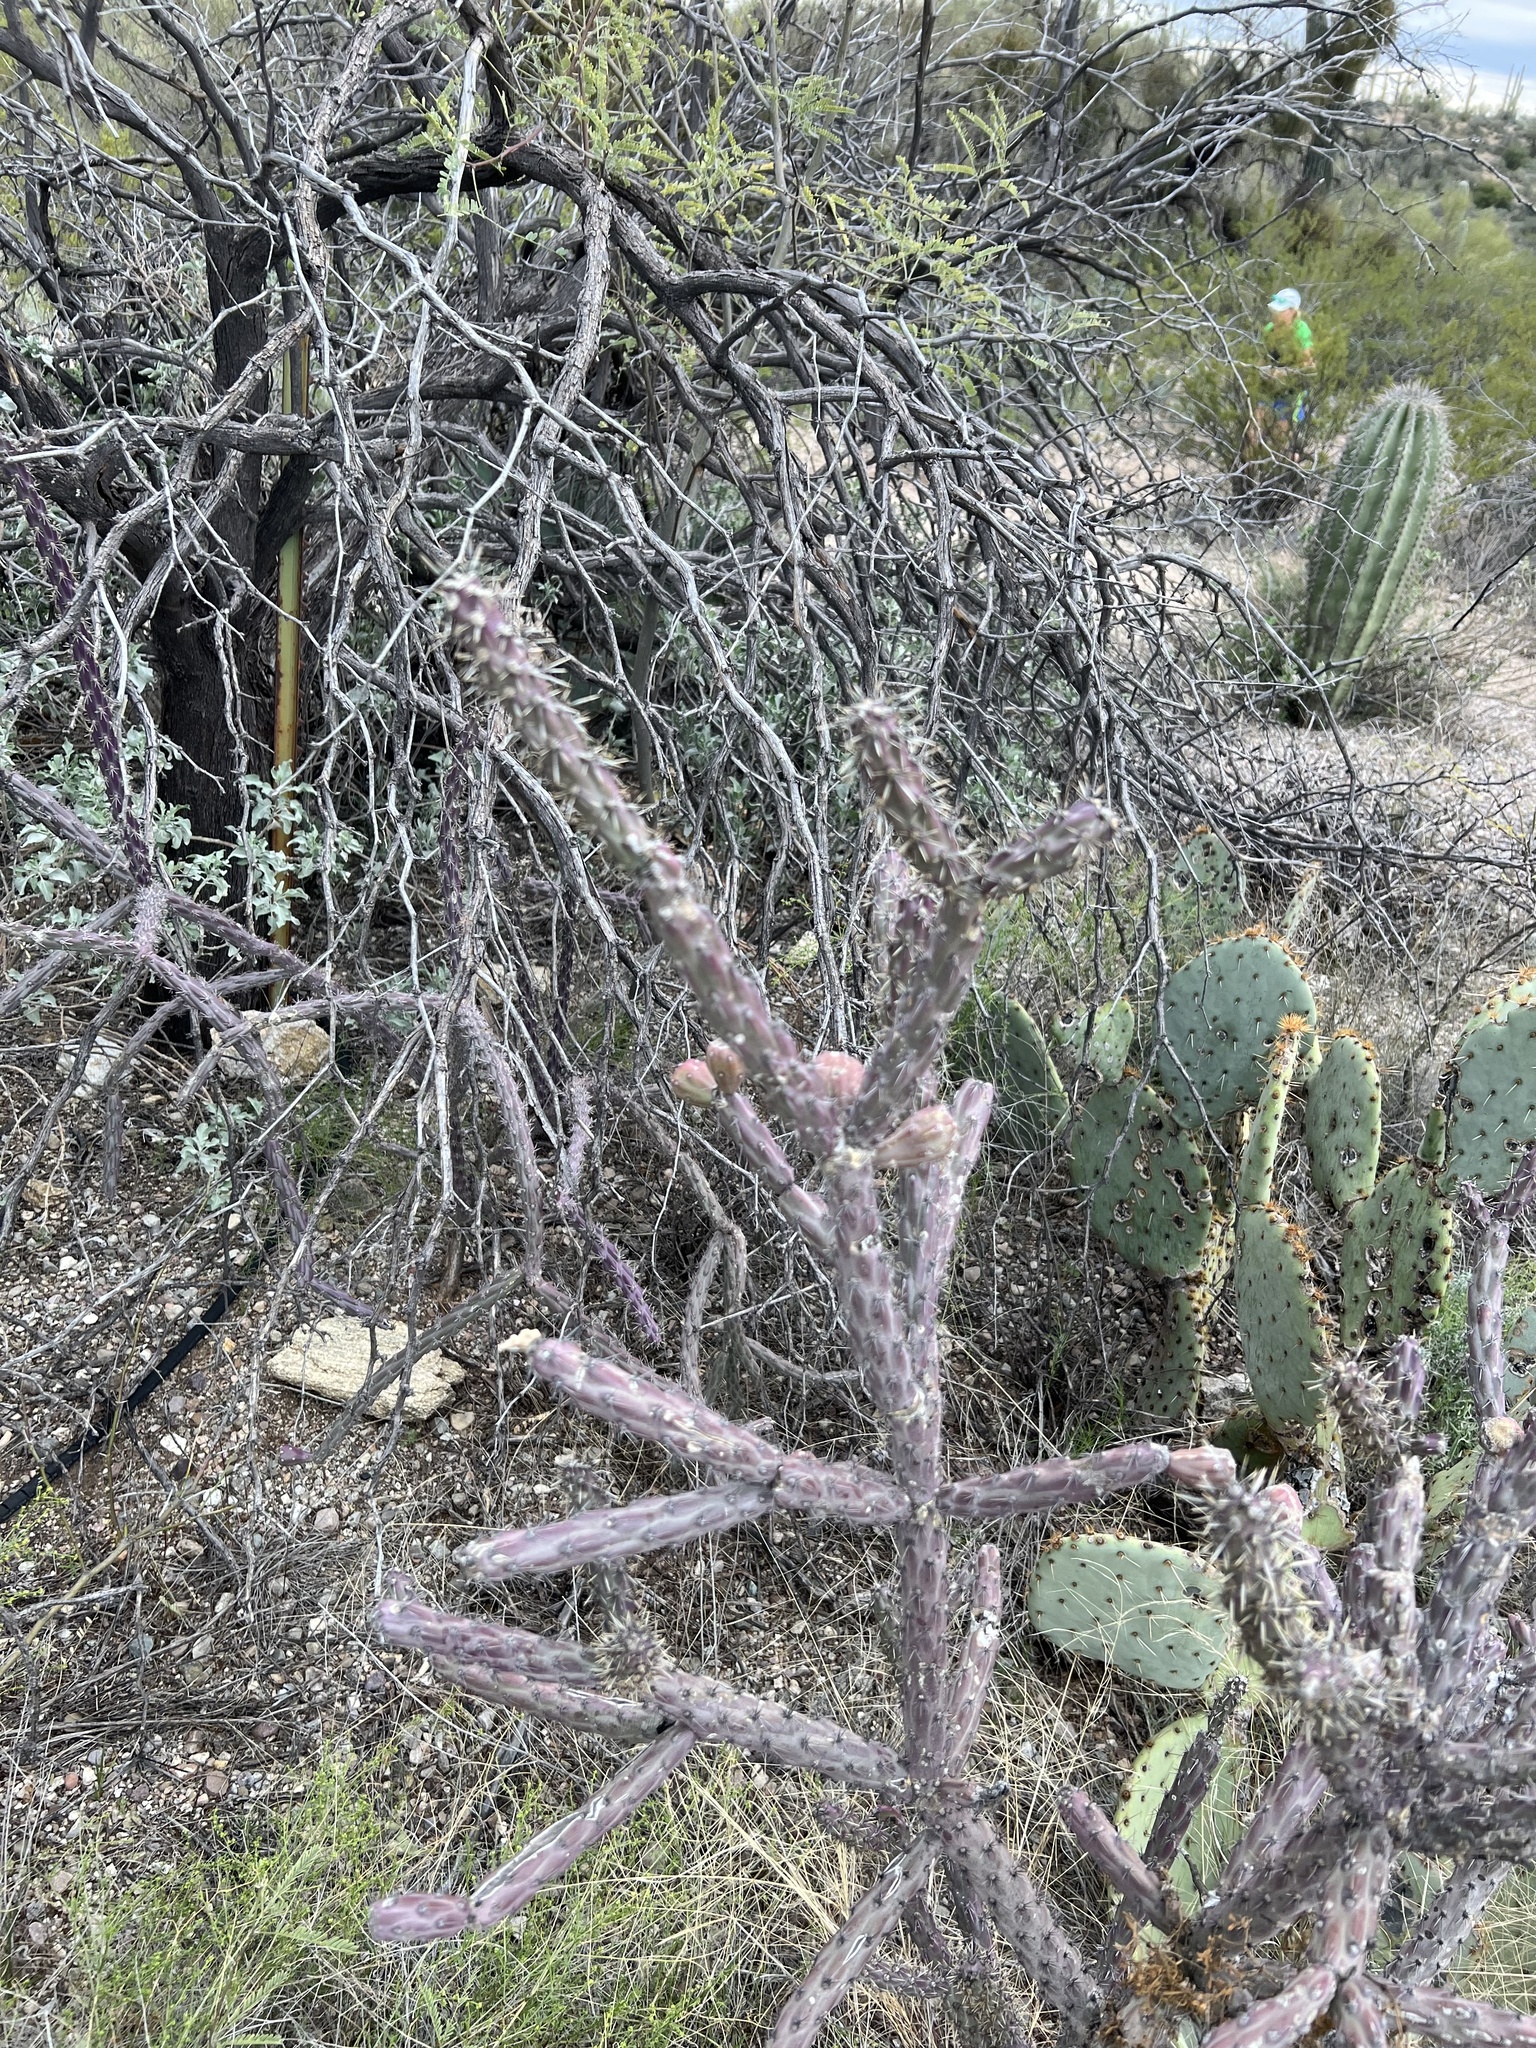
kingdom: Plantae
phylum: Tracheophyta
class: Magnoliopsida
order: Caryophyllales
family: Cactaceae
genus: Cylindropuntia
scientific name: Cylindropuntia thurberi
